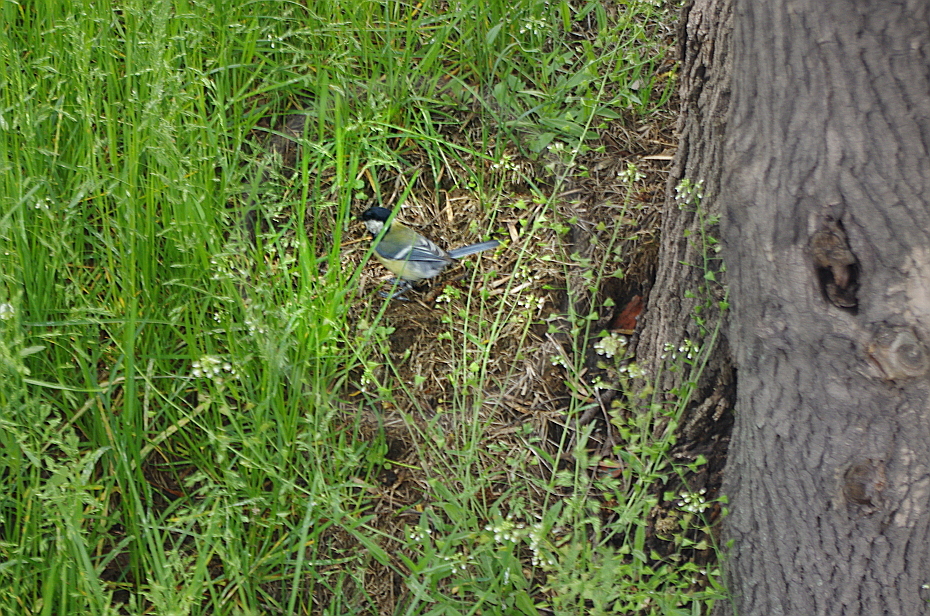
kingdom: Animalia
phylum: Chordata
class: Aves
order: Passeriformes
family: Paridae
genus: Parus
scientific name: Parus major
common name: Great tit
